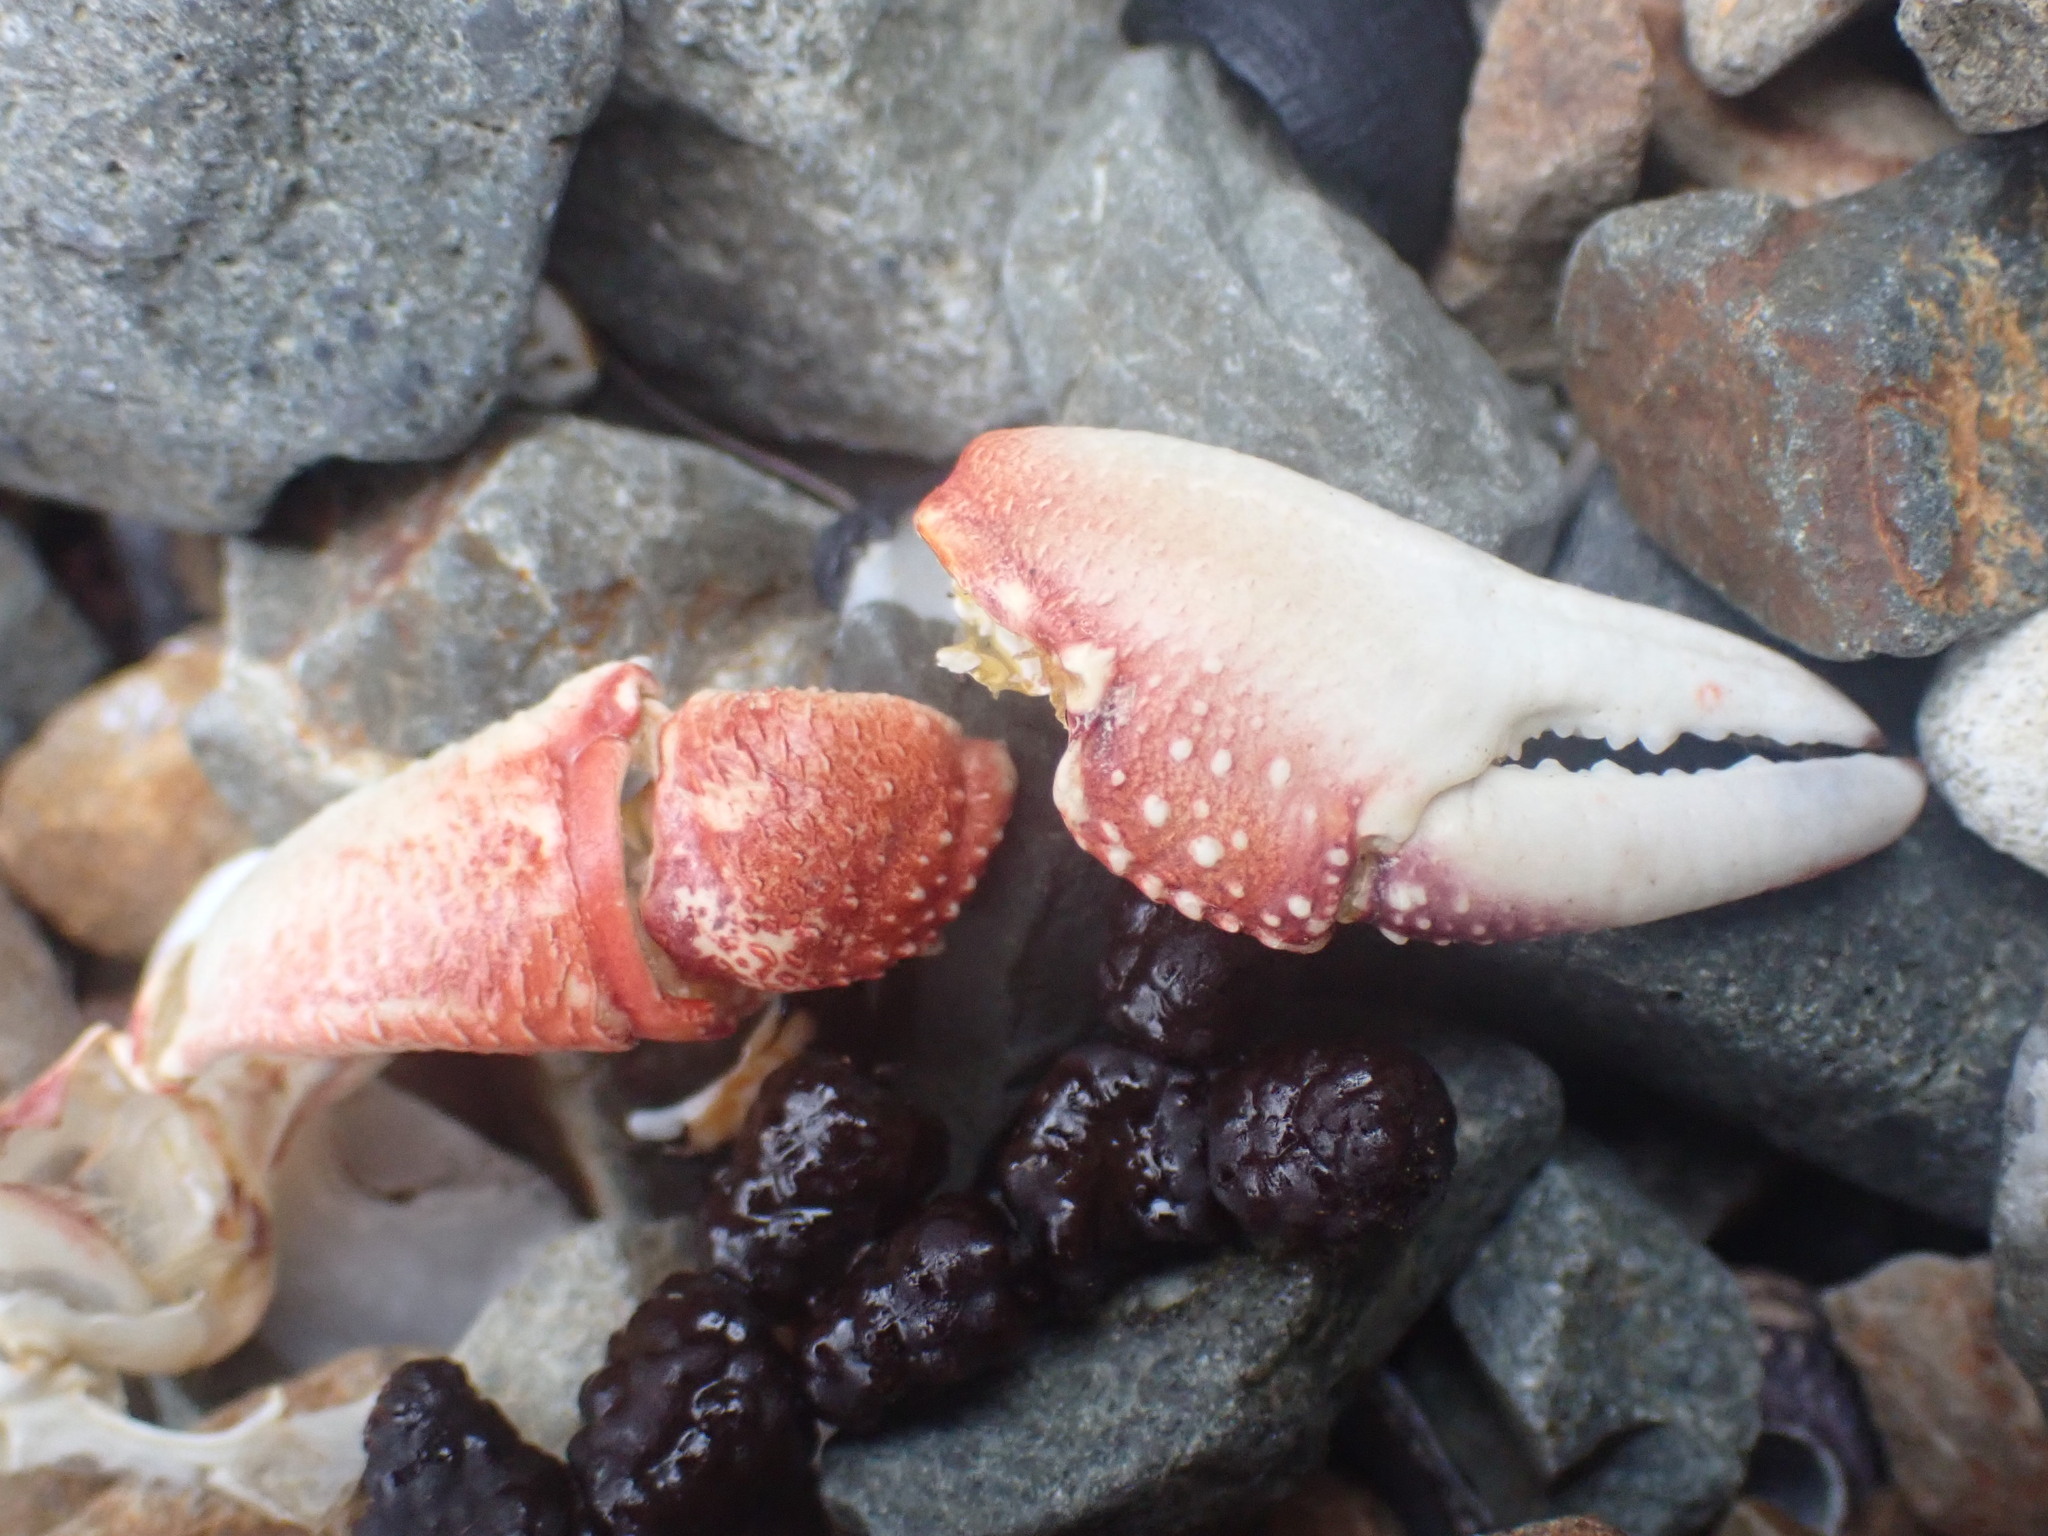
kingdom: Animalia
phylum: Arthropoda
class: Malacostraca
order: Decapoda
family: Grapsidae
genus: Leptograpsus
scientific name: Leptograpsus variegatus
